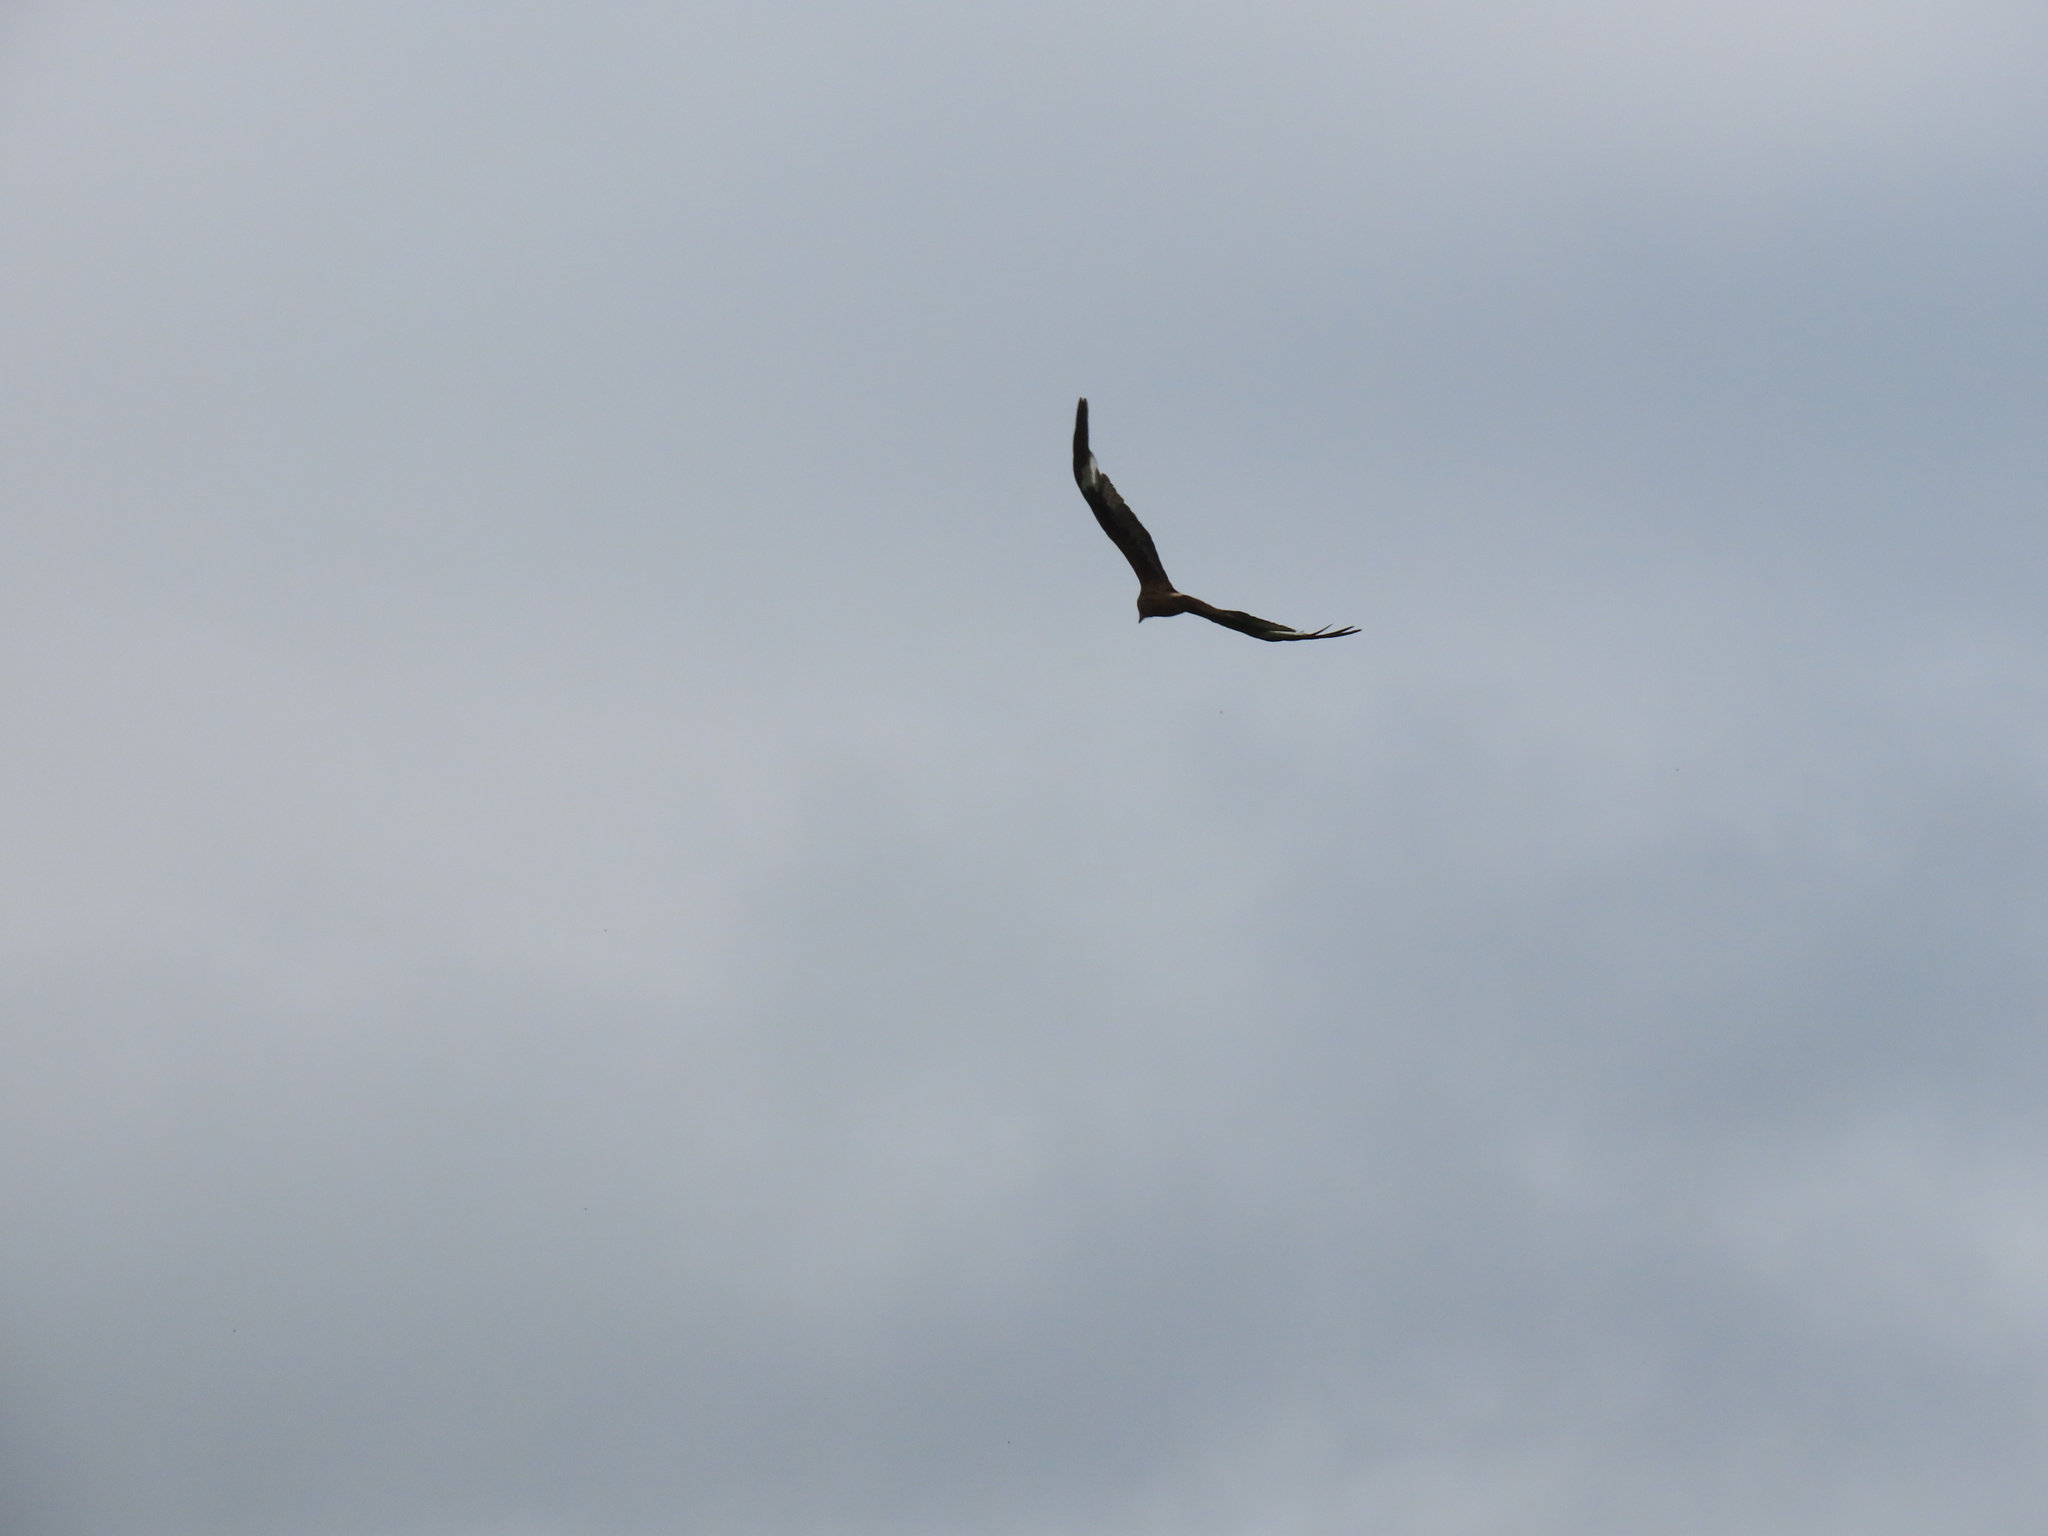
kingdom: Animalia
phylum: Chordata
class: Aves
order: Accipitriformes
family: Accipitridae
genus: Milvus
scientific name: Milvus milvus
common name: Red kite
